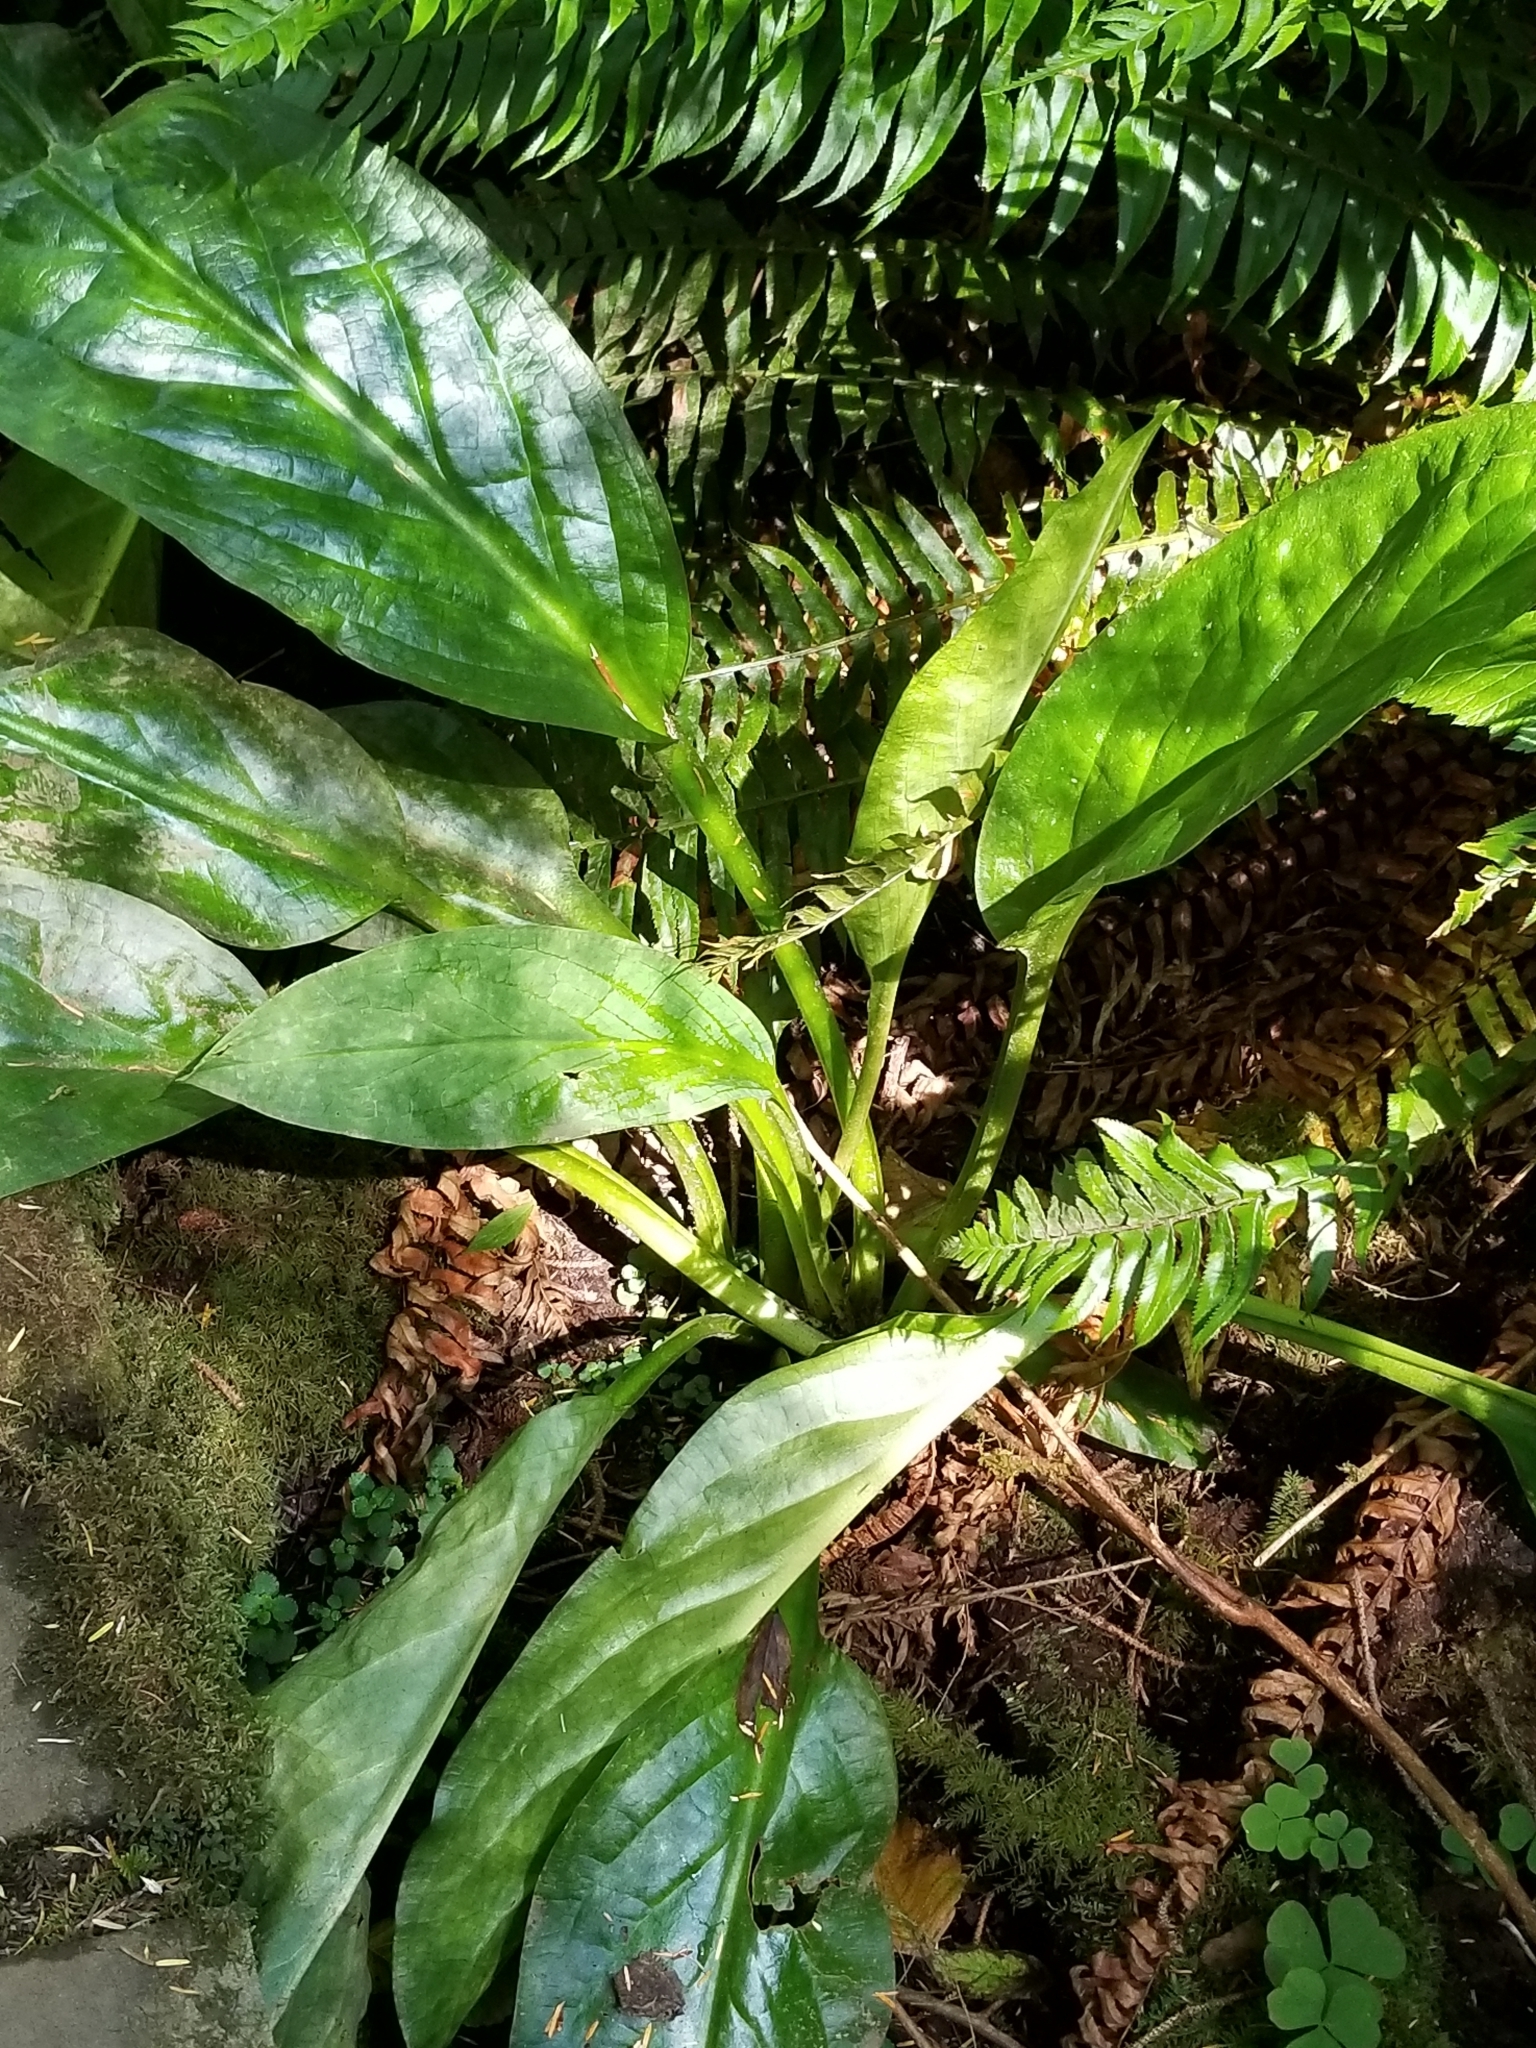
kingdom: Plantae
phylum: Tracheophyta
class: Liliopsida
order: Alismatales
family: Araceae
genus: Lysichiton
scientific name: Lysichiton americanus
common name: American skunk cabbage
